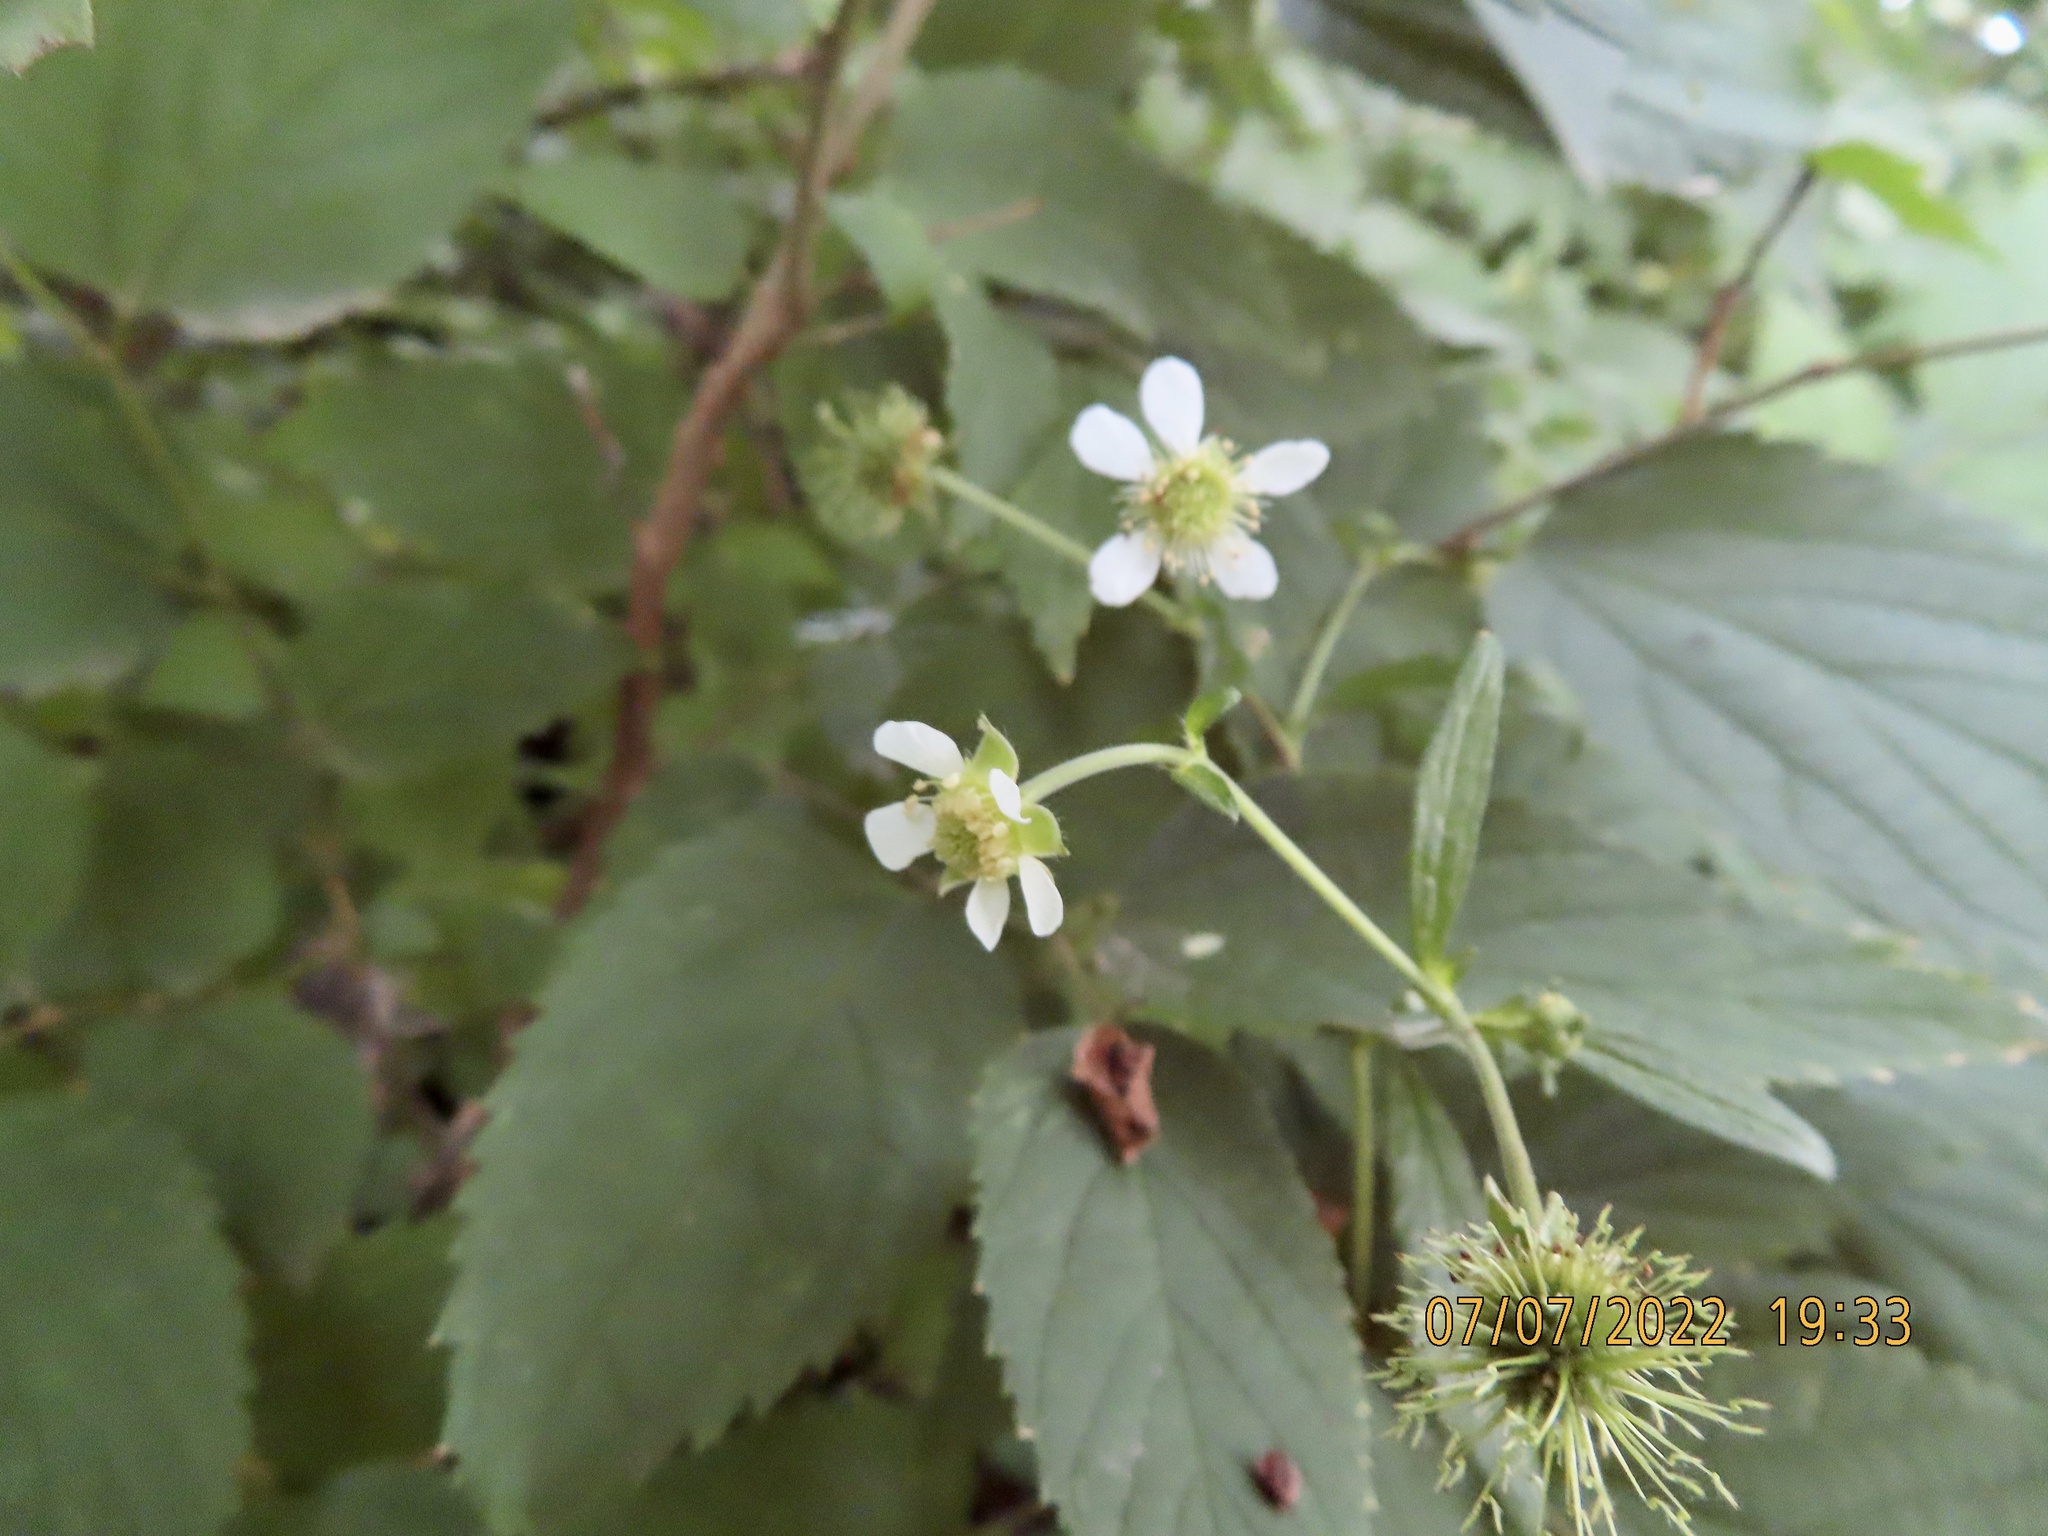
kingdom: Plantae
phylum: Tracheophyta
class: Magnoliopsida
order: Rosales
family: Rosaceae
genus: Geum
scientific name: Geum canadense
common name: White avens
